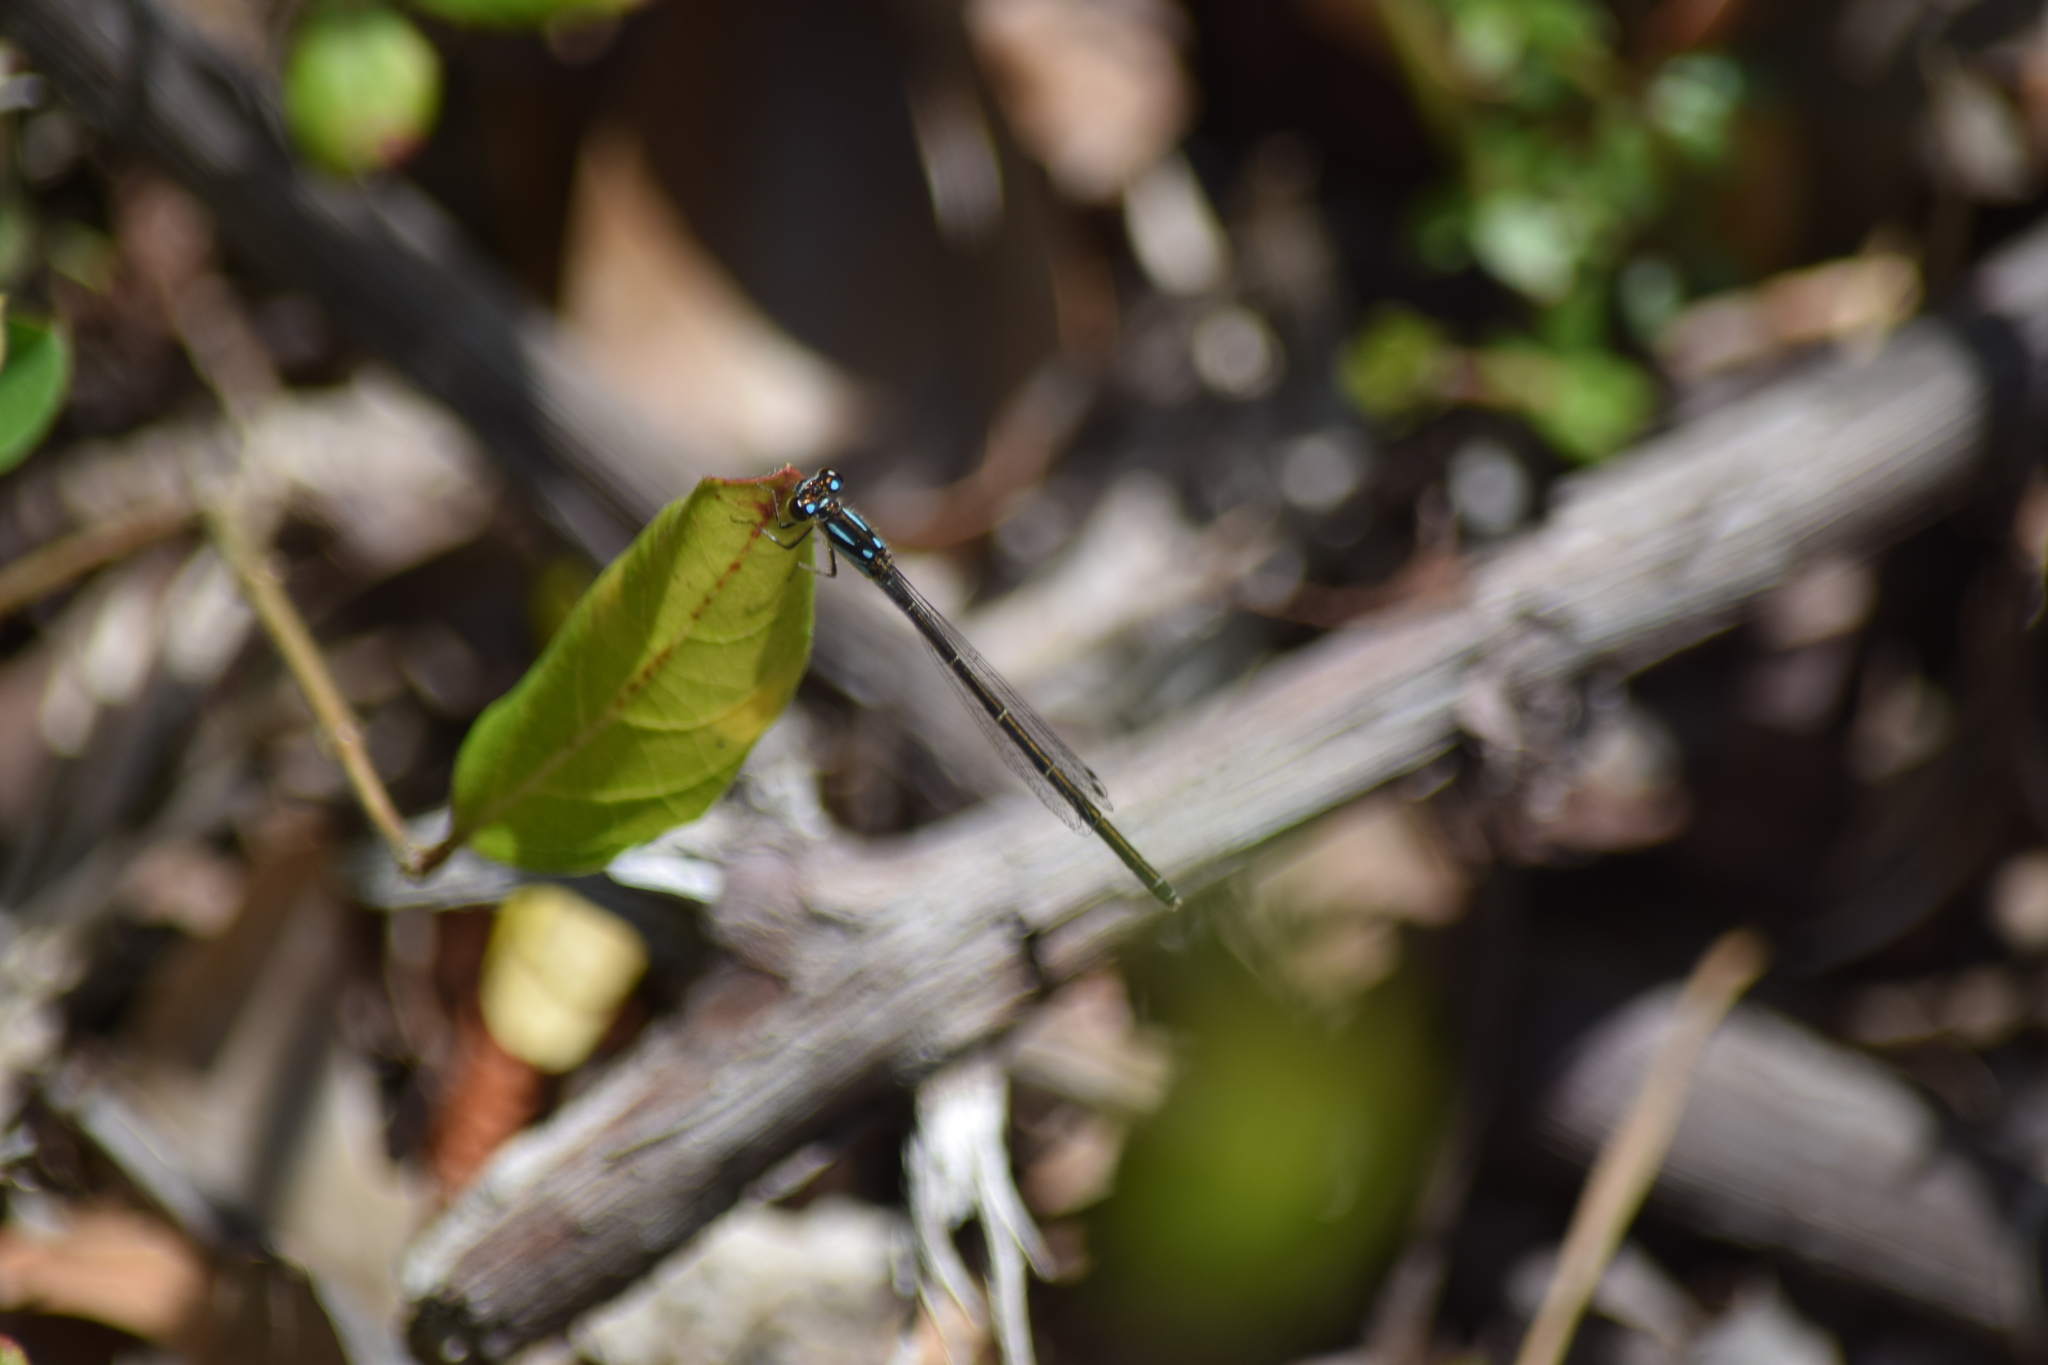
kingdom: Animalia
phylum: Arthropoda
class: Insecta
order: Odonata
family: Coenagrionidae
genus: Ischnura
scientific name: Ischnura posita
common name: Fragile forktail
